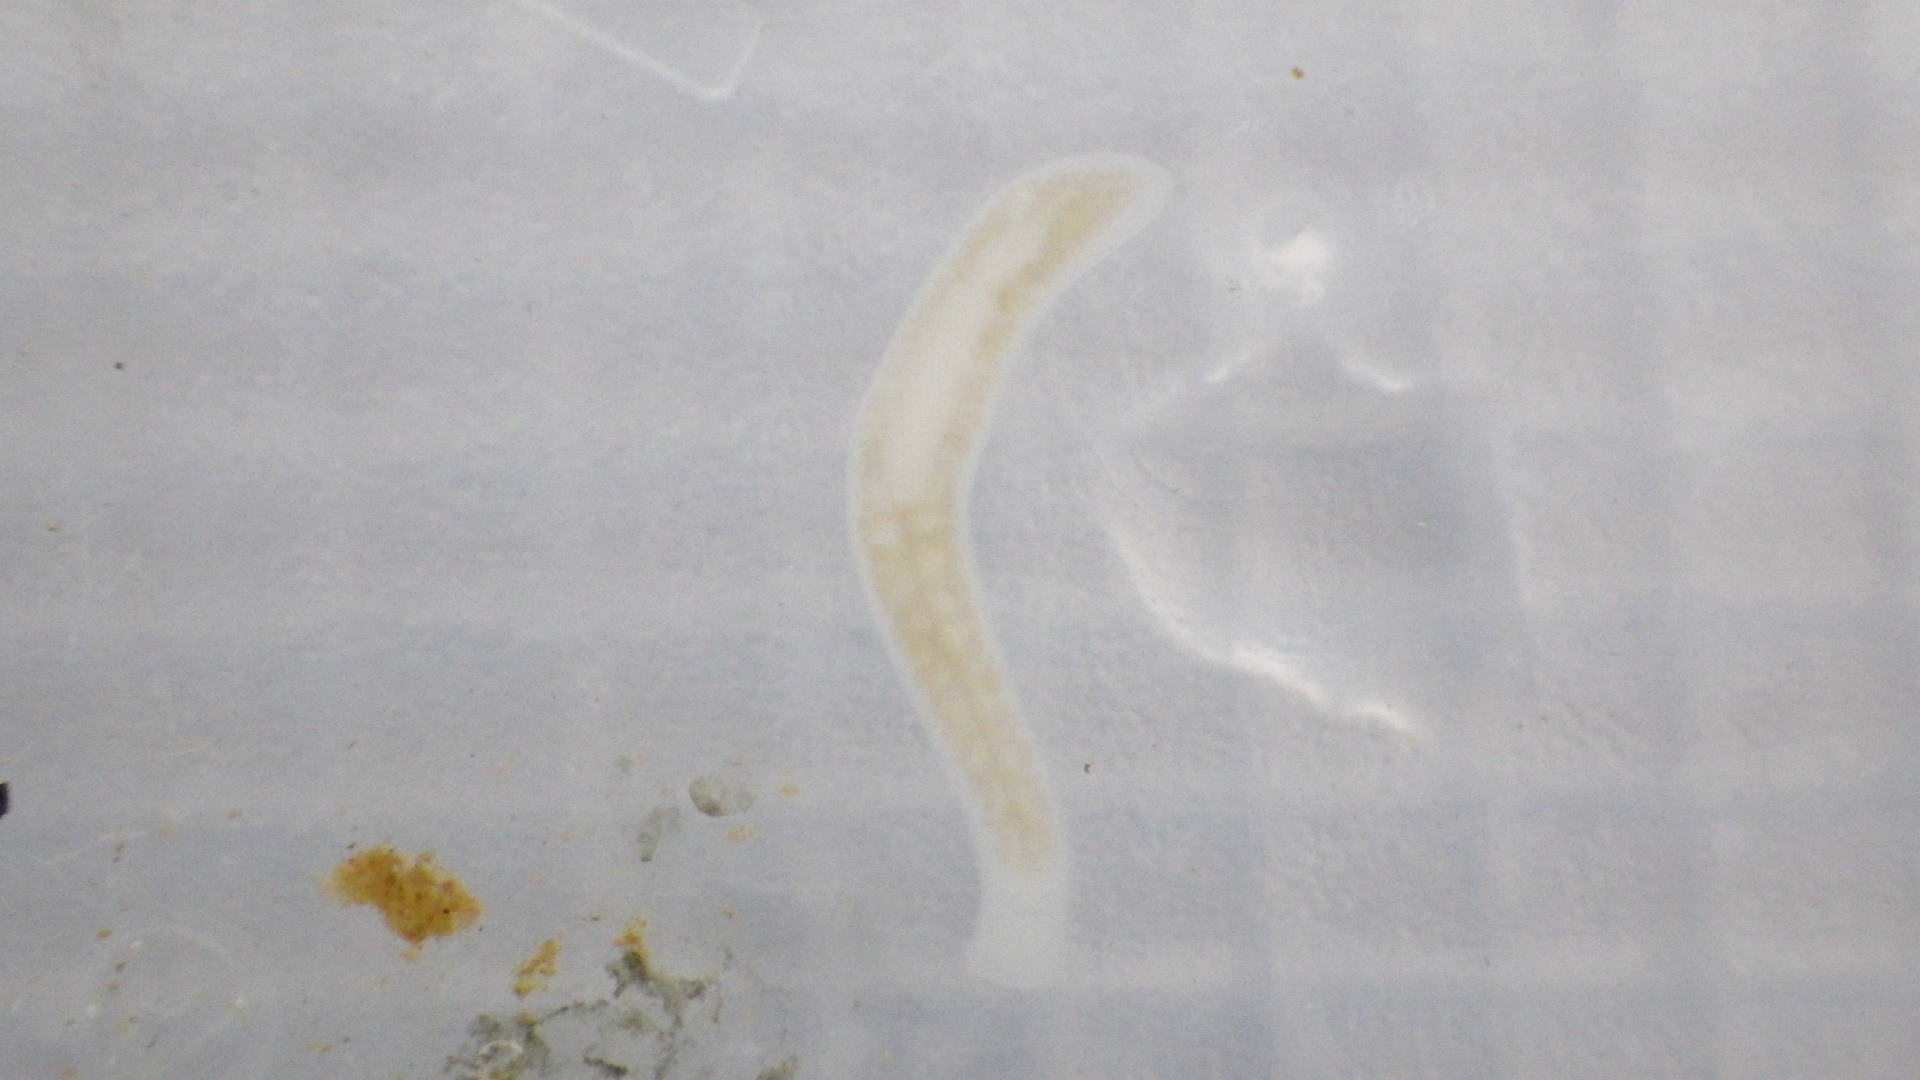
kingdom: Animalia
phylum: Platyhelminthes
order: Tricladida
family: Planariidae
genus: Phagocata
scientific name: Phagocata morgani
